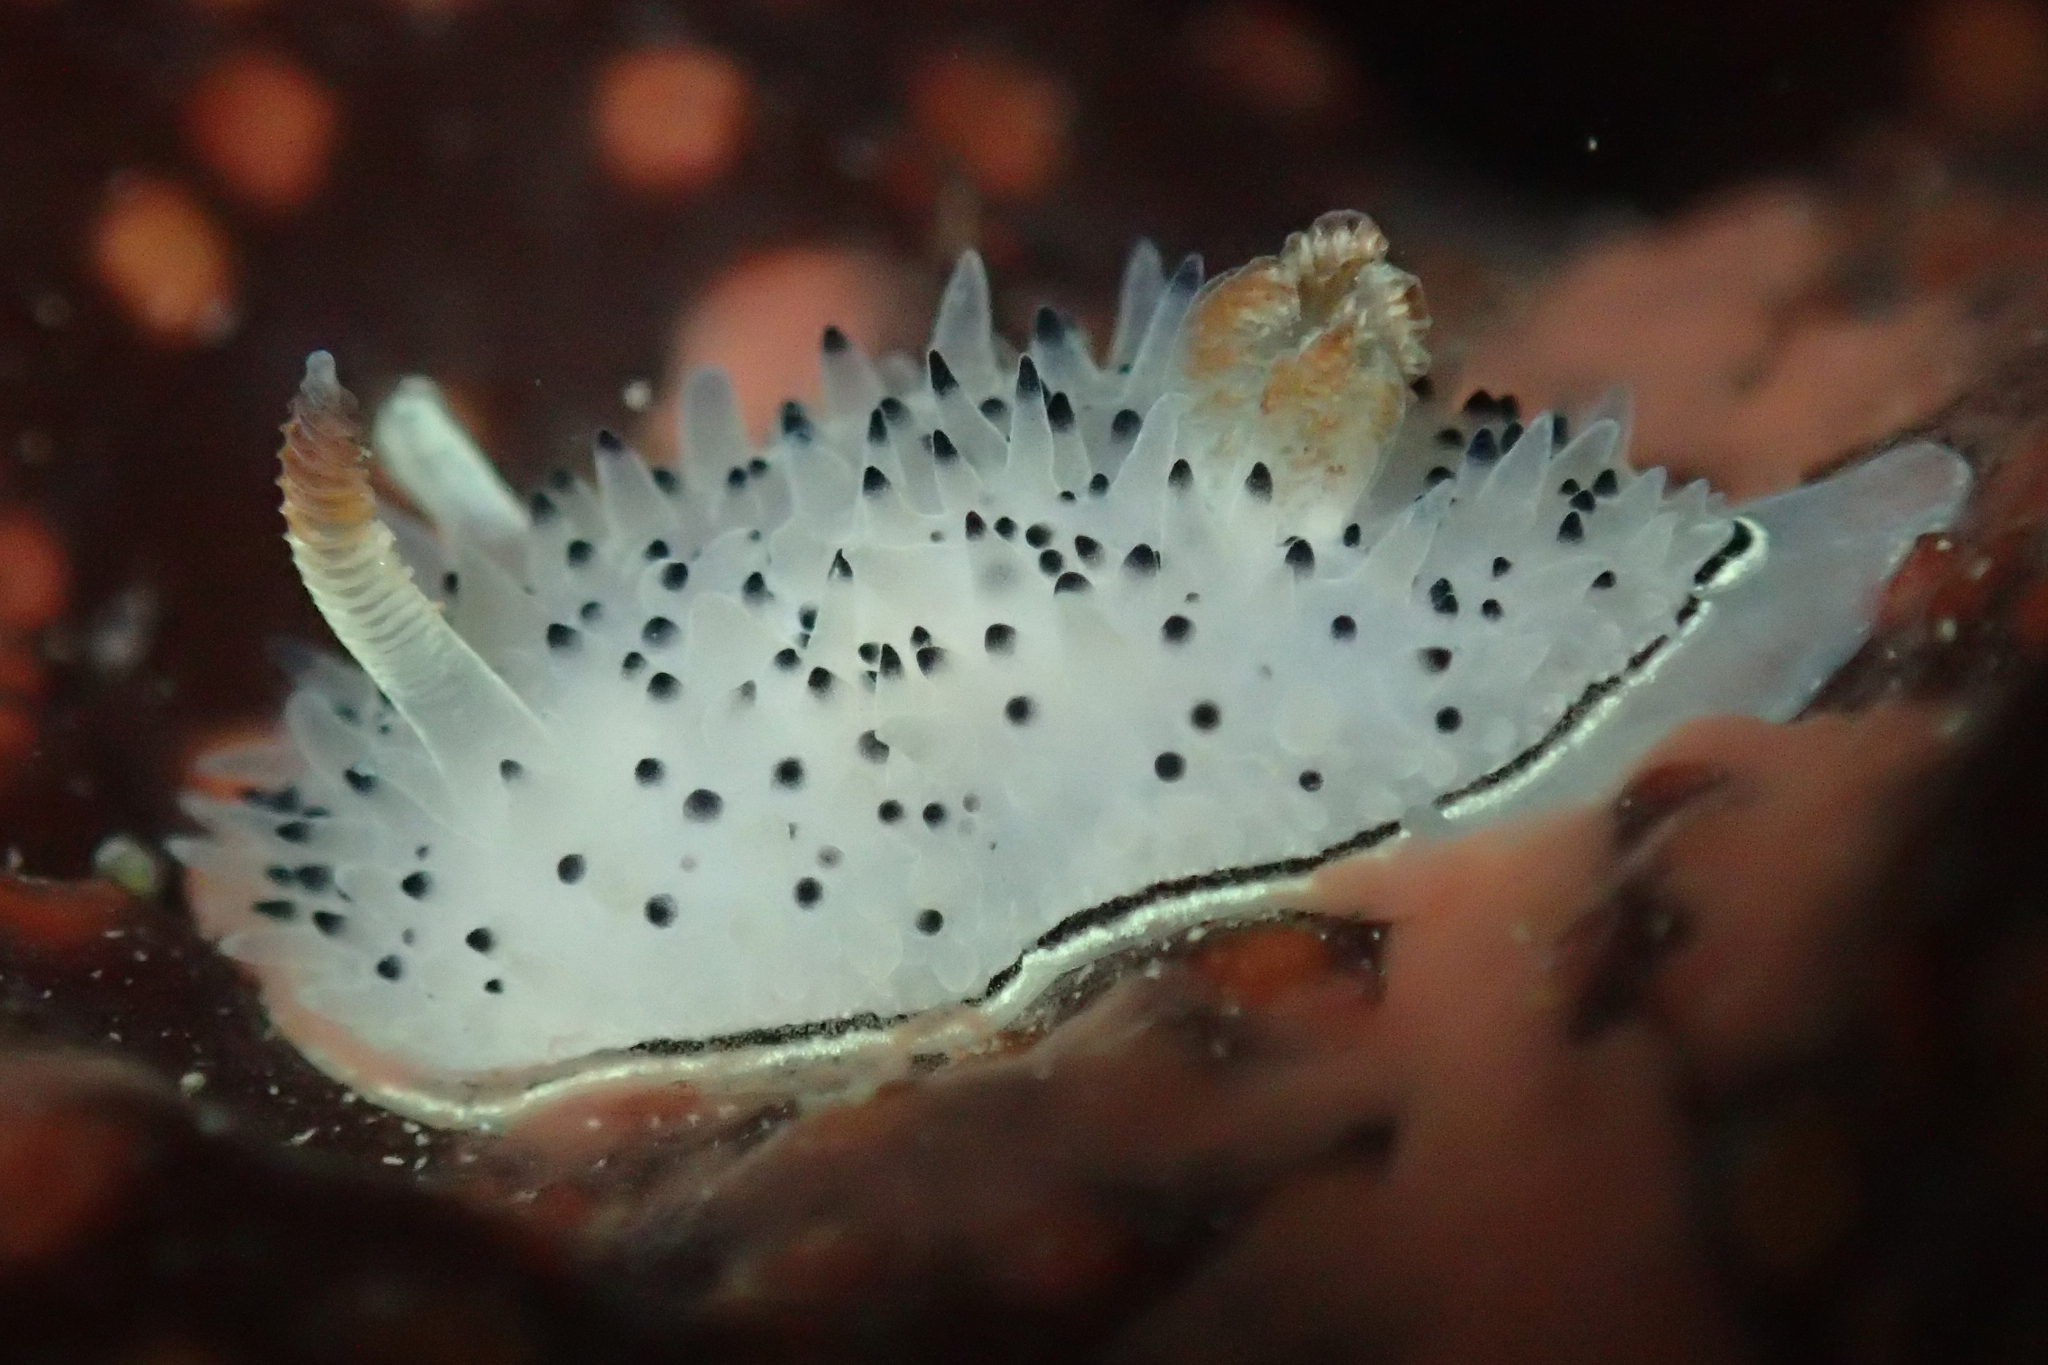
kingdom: Animalia
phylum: Mollusca
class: Gastropoda
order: Nudibranchia
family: Onchidorididae
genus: Acanthodoris
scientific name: Acanthodoris rhodoceras
